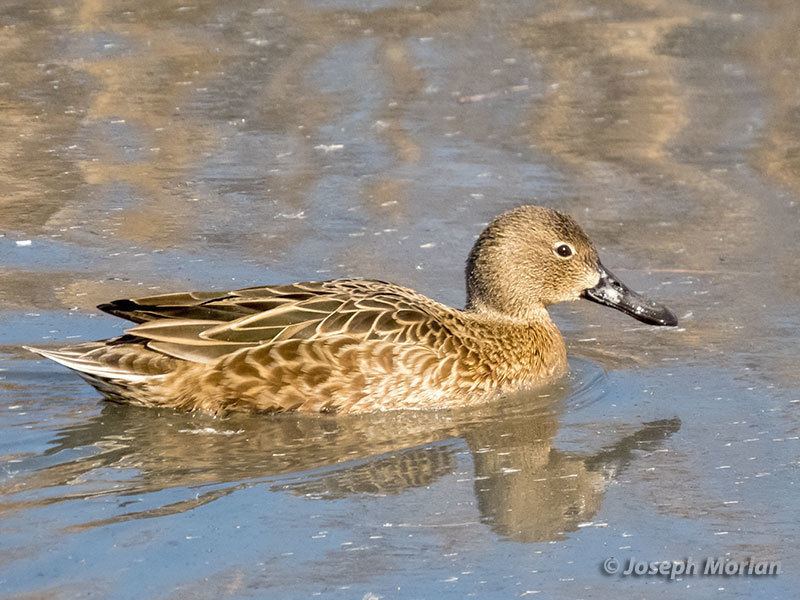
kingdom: Animalia
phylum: Chordata
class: Aves
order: Anseriformes
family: Anatidae
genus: Spatula
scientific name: Spatula cyanoptera
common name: Cinnamon teal
